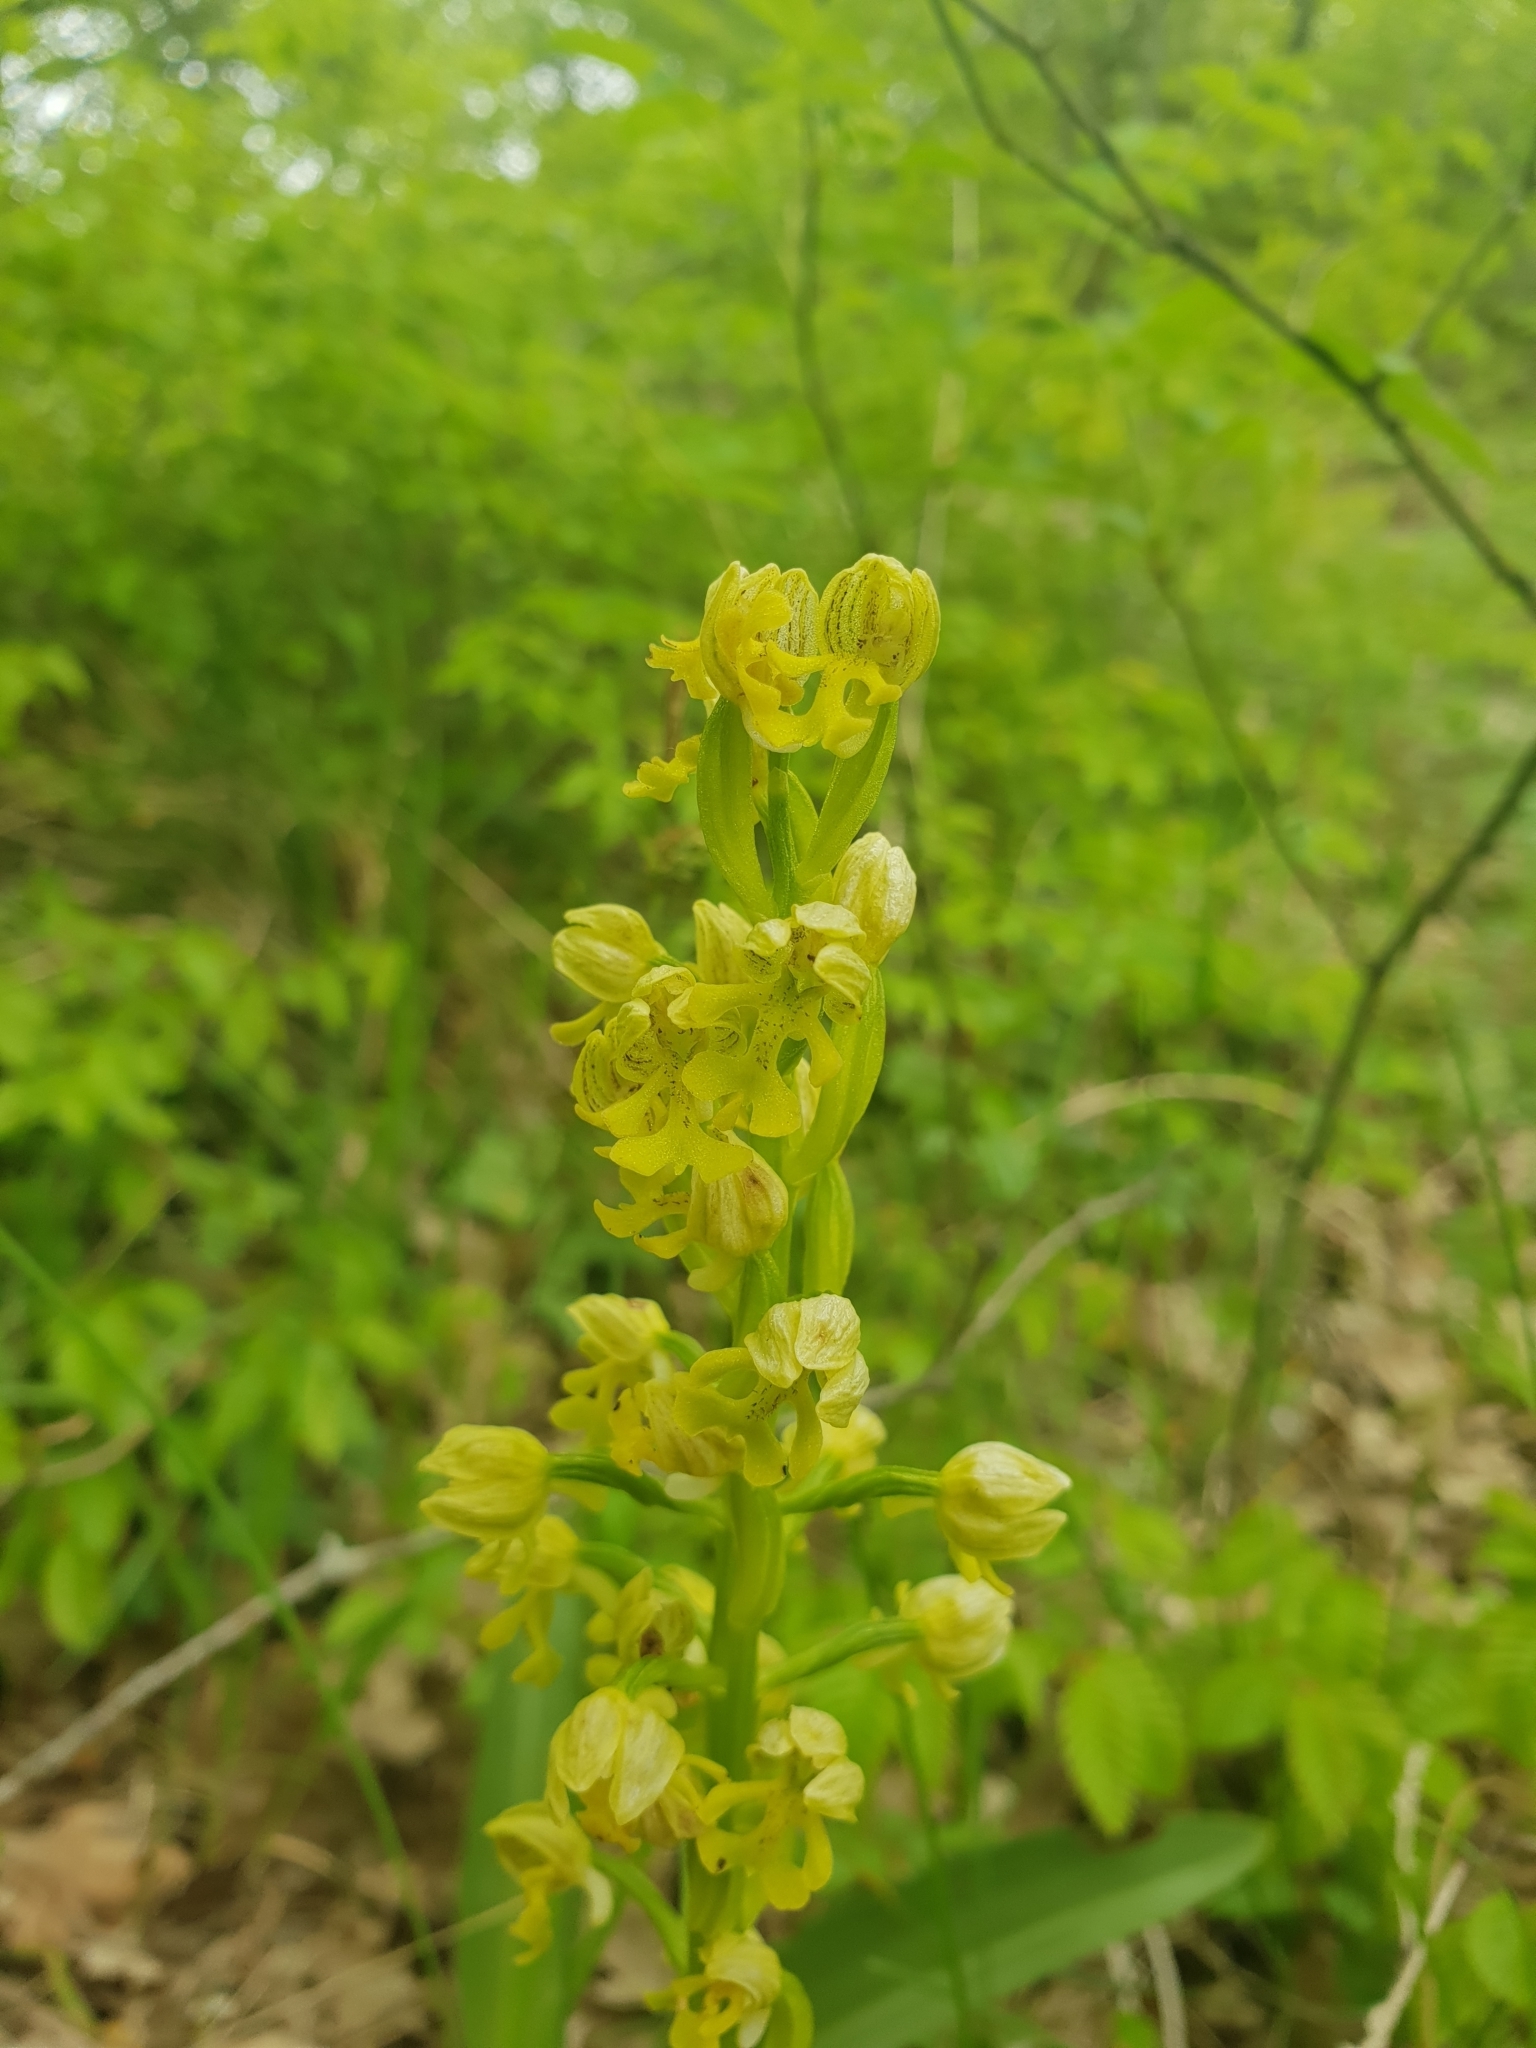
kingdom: Plantae
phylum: Tracheophyta
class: Liliopsida
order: Asparagales
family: Orchidaceae
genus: Orchis
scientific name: Orchis punctulata
